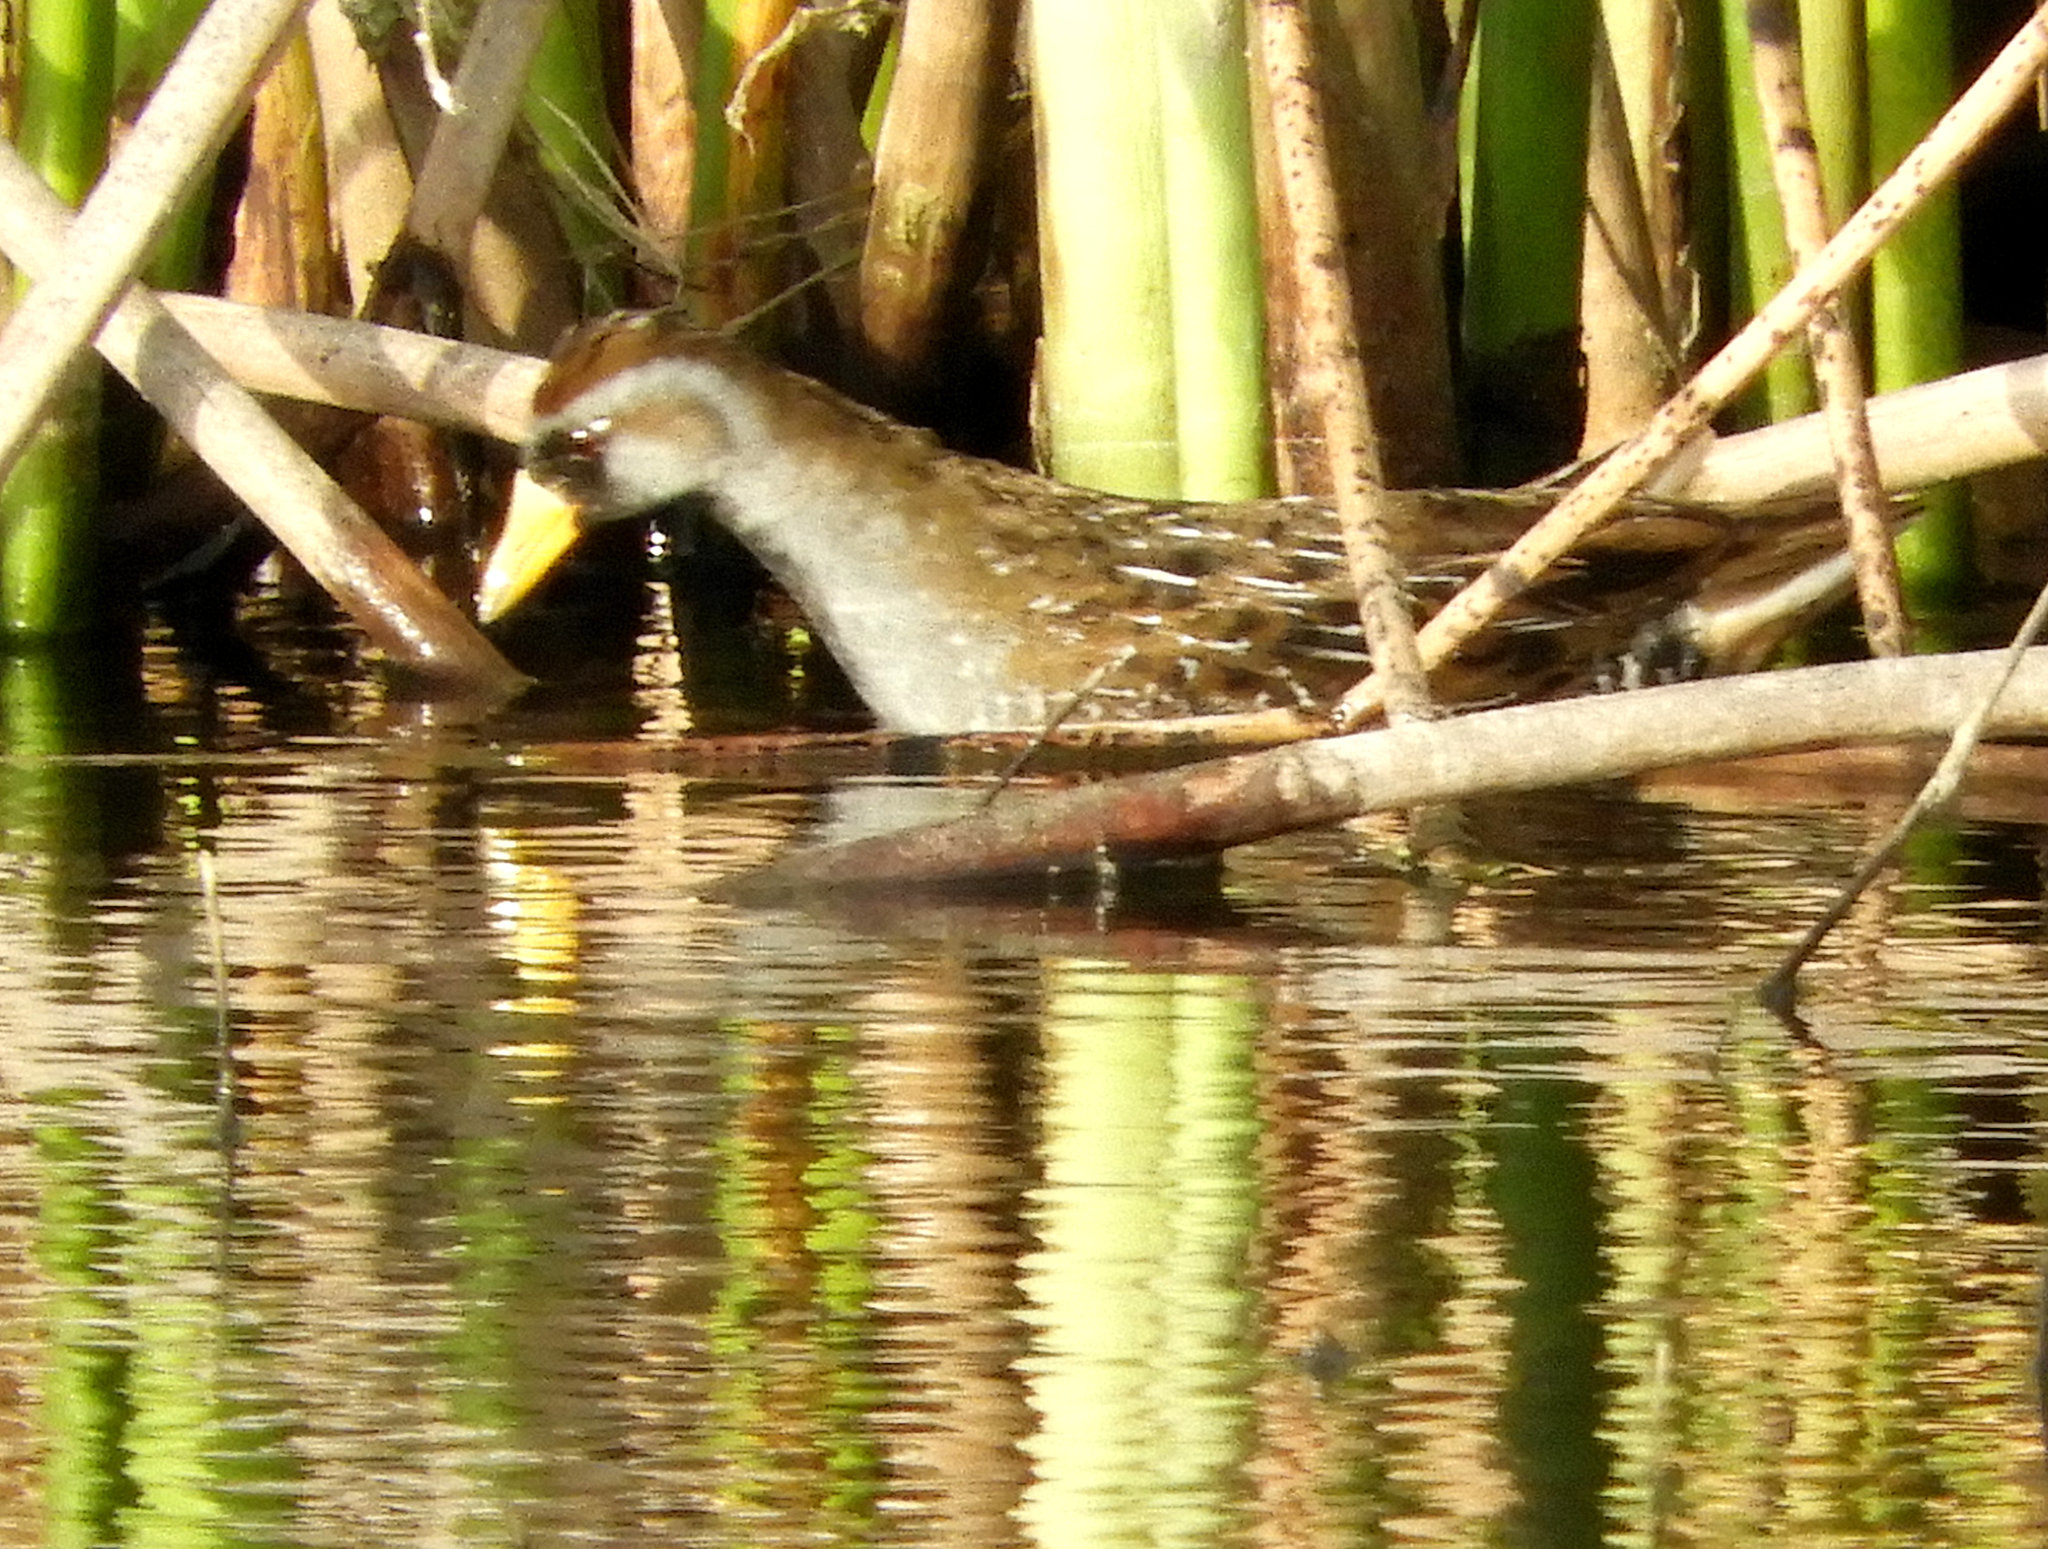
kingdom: Animalia
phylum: Chordata
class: Aves
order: Gruiformes
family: Rallidae
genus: Porzana
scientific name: Porzana carolina
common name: Sora
